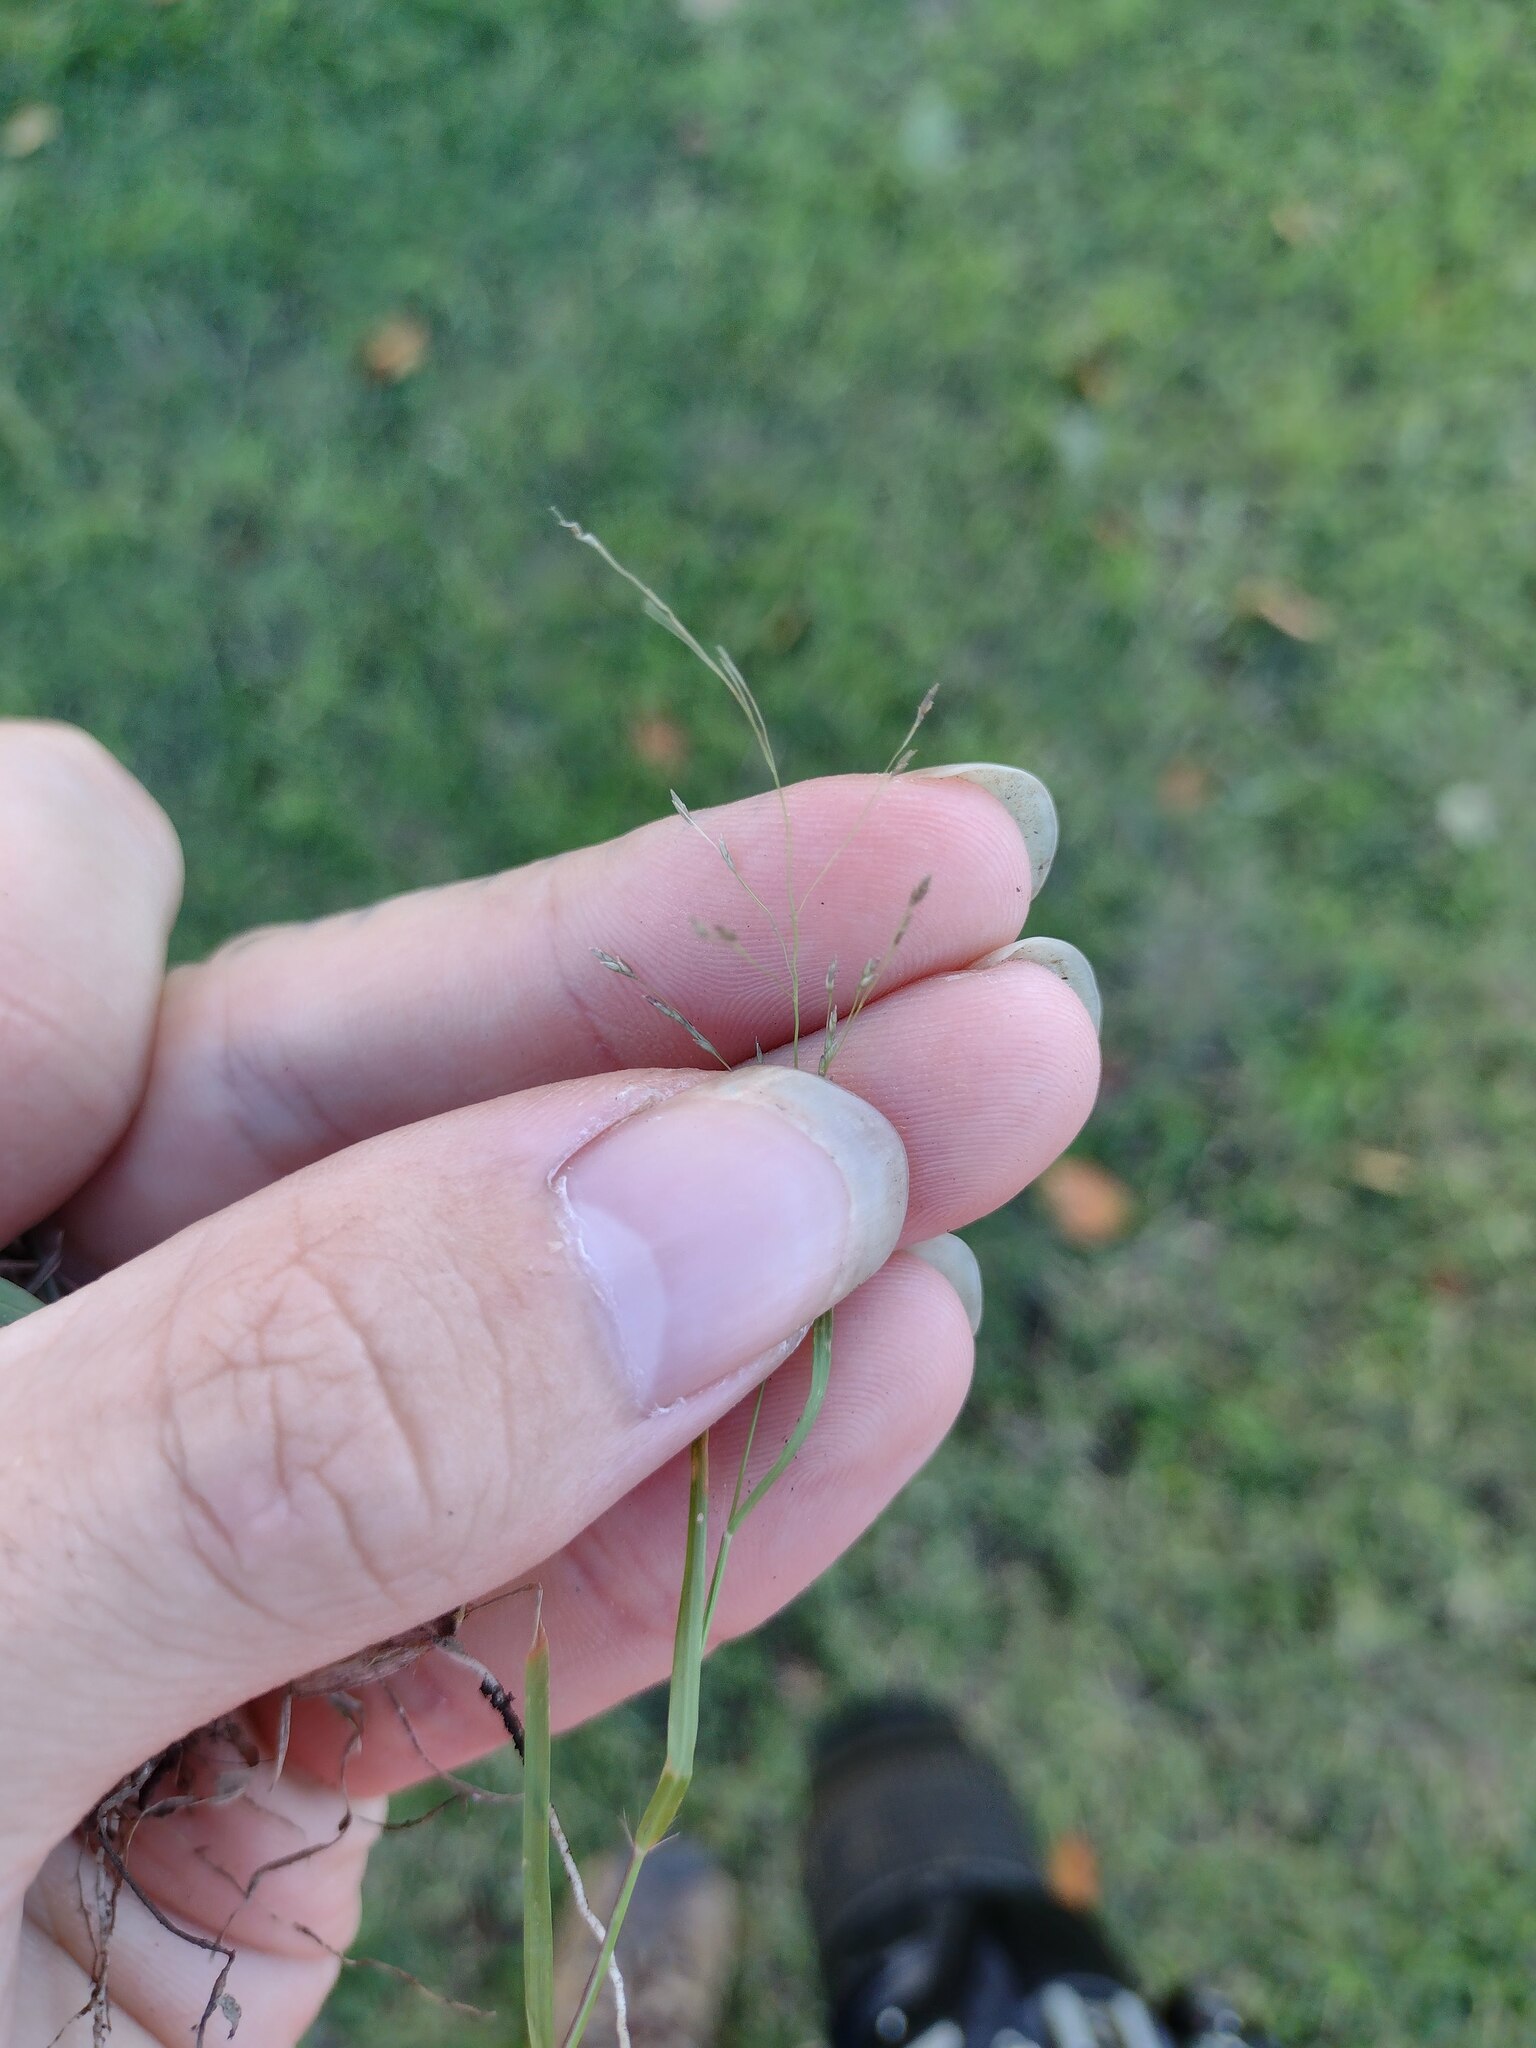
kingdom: Plantae
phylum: Tracheophyta
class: Liliopsida
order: Poales
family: Poaceae
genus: Eragrostis
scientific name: Eragrostis pilosa
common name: Indian lovegrass
